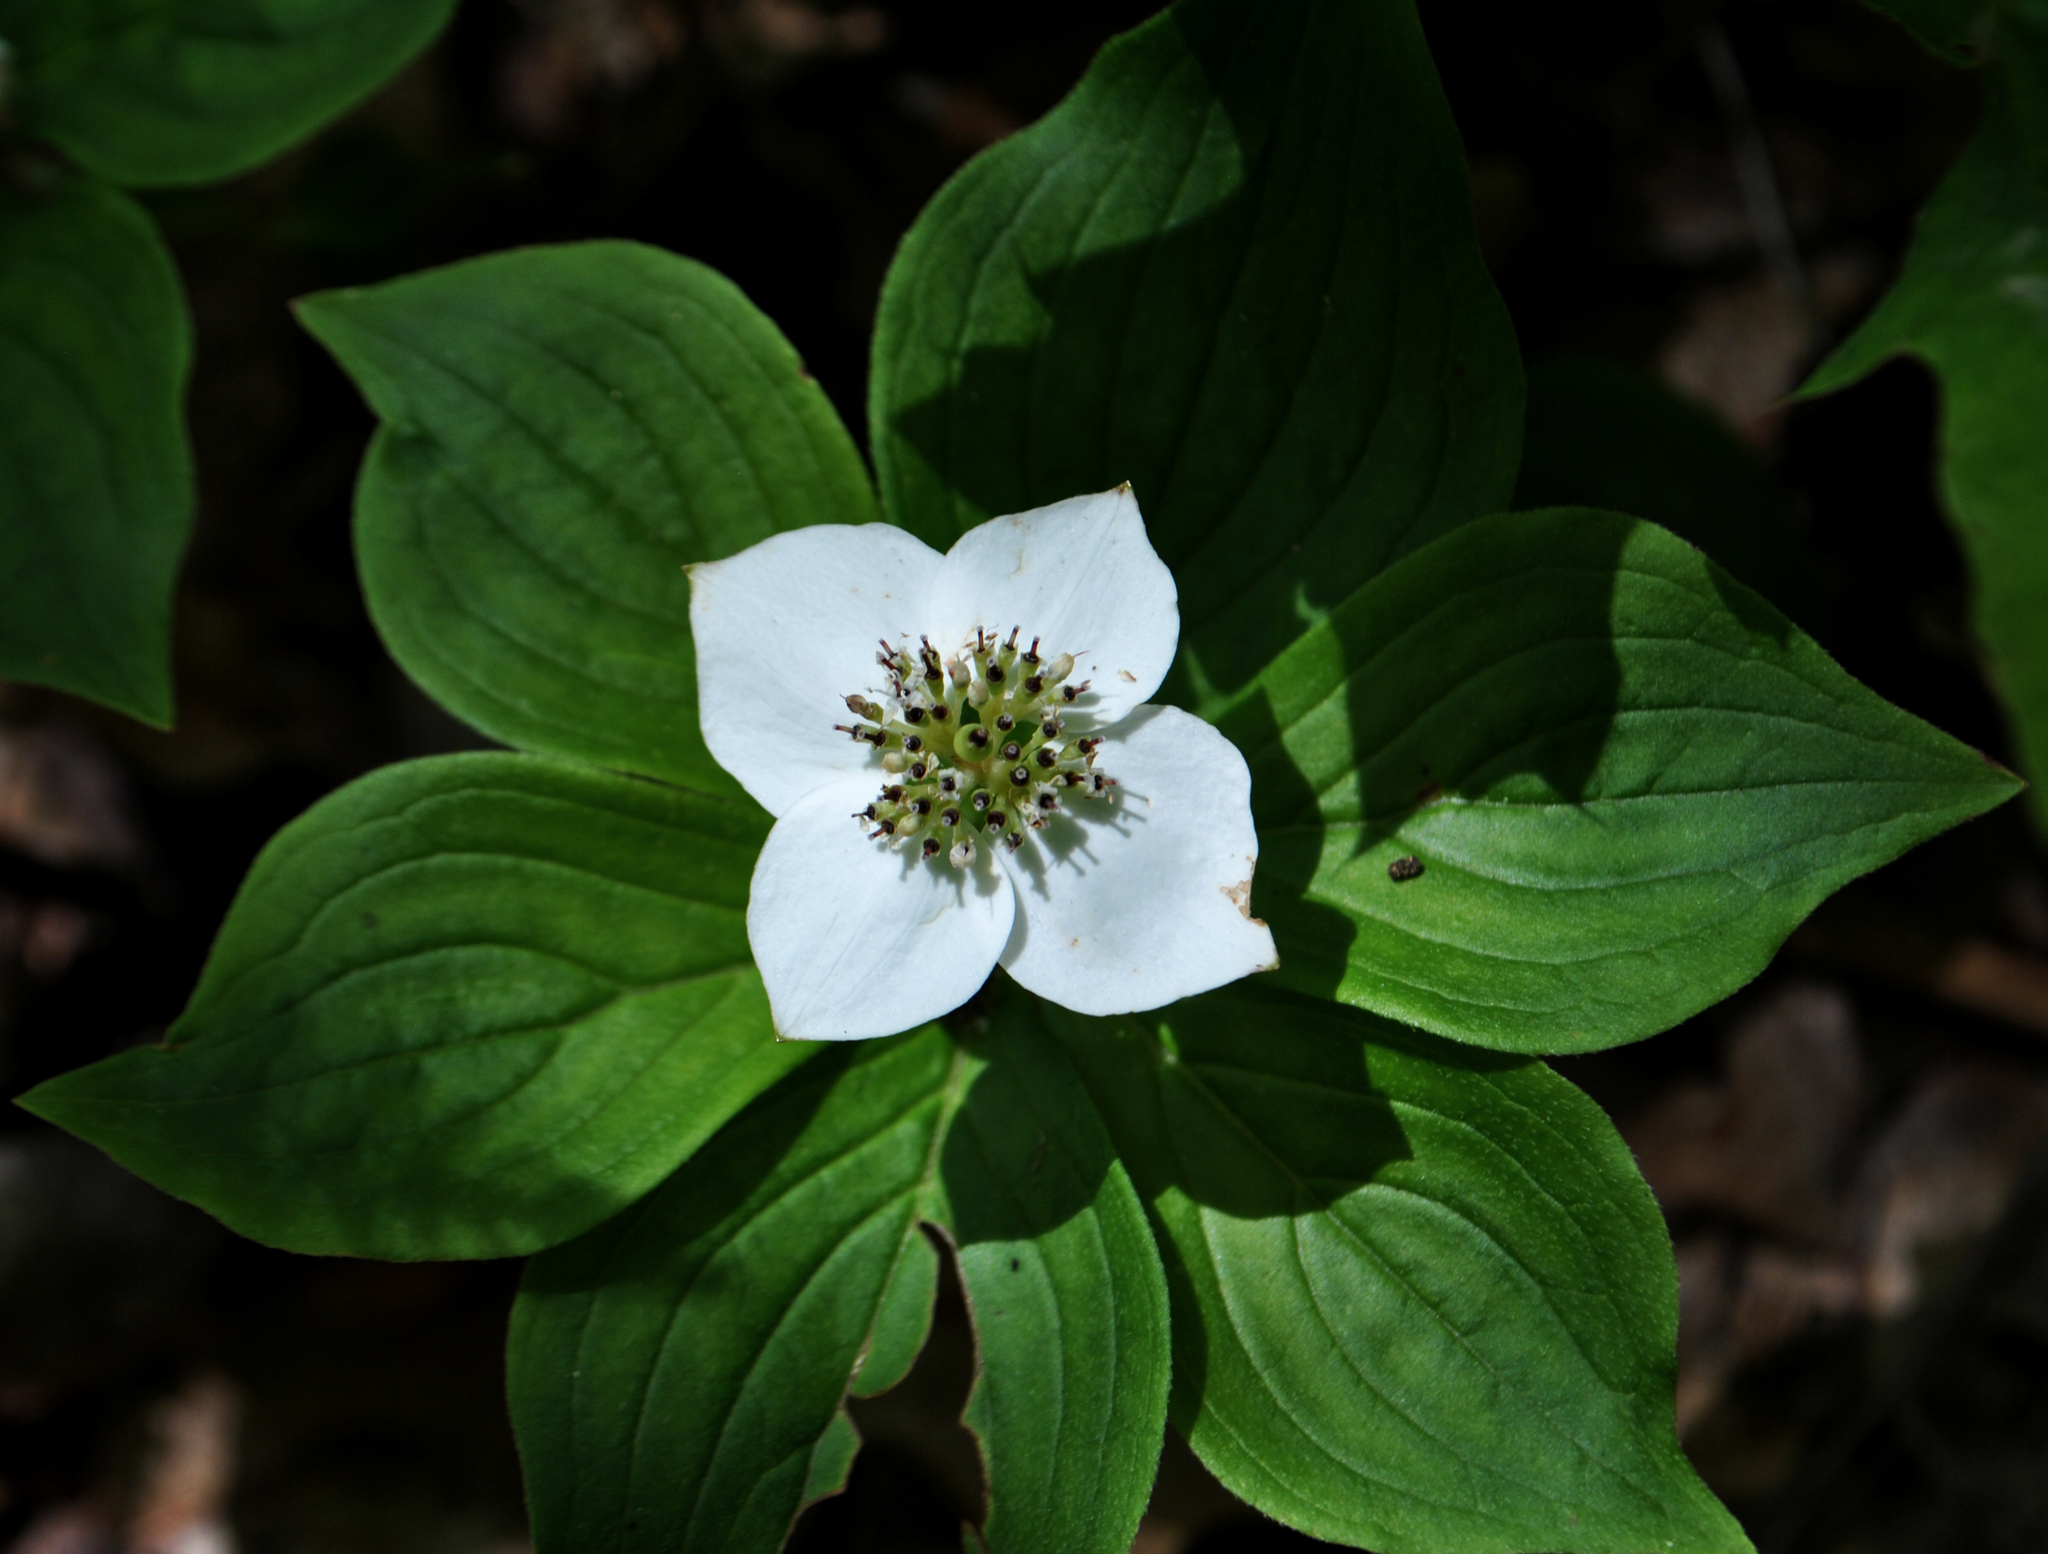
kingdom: Plantae
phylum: Tracheophyta
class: Magnoliopsida
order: Cornales
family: Cornaceae
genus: Cornus
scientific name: Cornus canadensis
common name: Creeping dogwood
